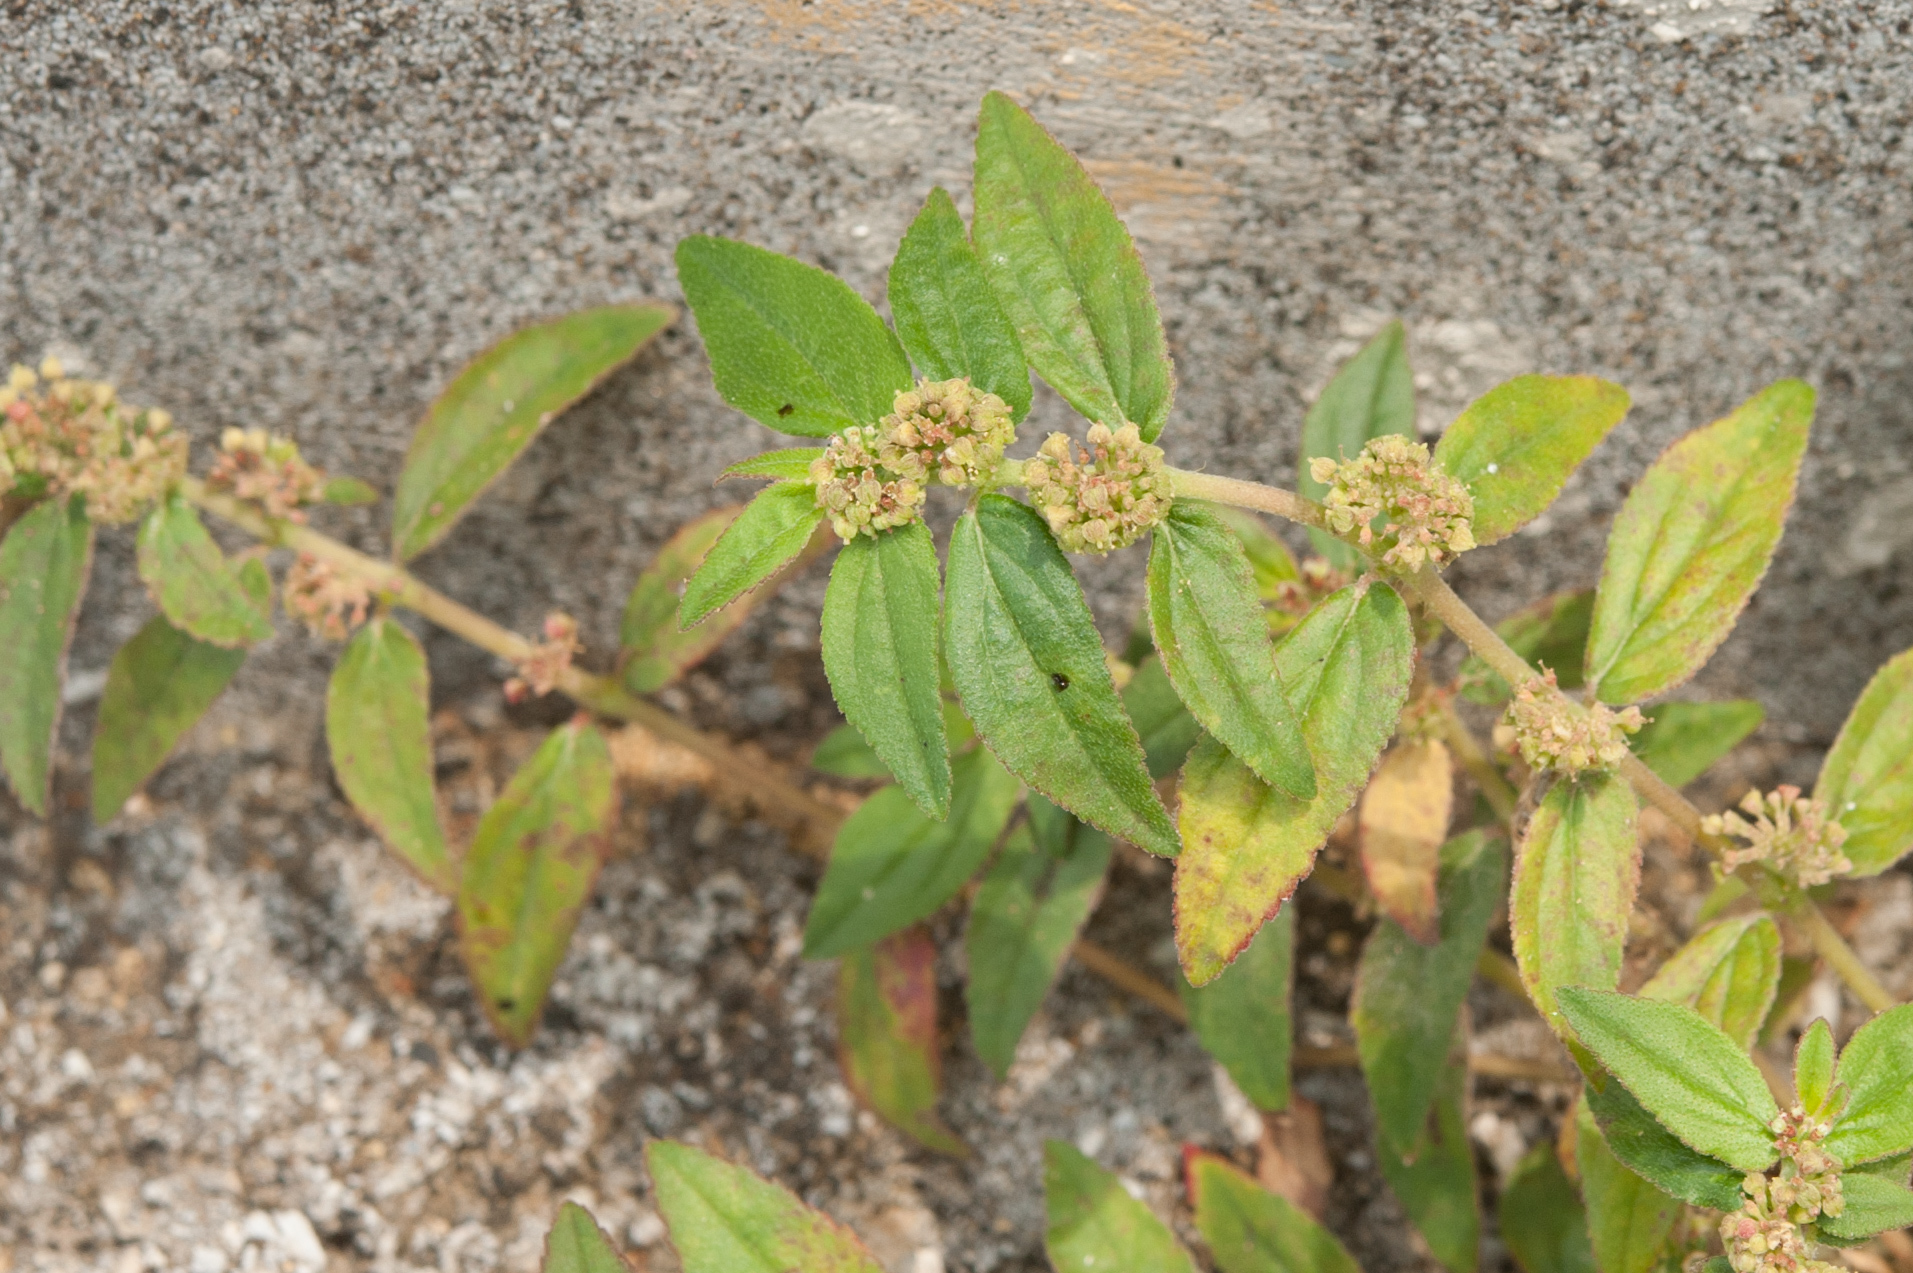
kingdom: Plantae
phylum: Tracheophyta
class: Magnoliopsida
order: Malpighiales
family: Euphorbiaceae
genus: Euphorbia
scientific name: Euphorbia hirta
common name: Pillpod sandmat
